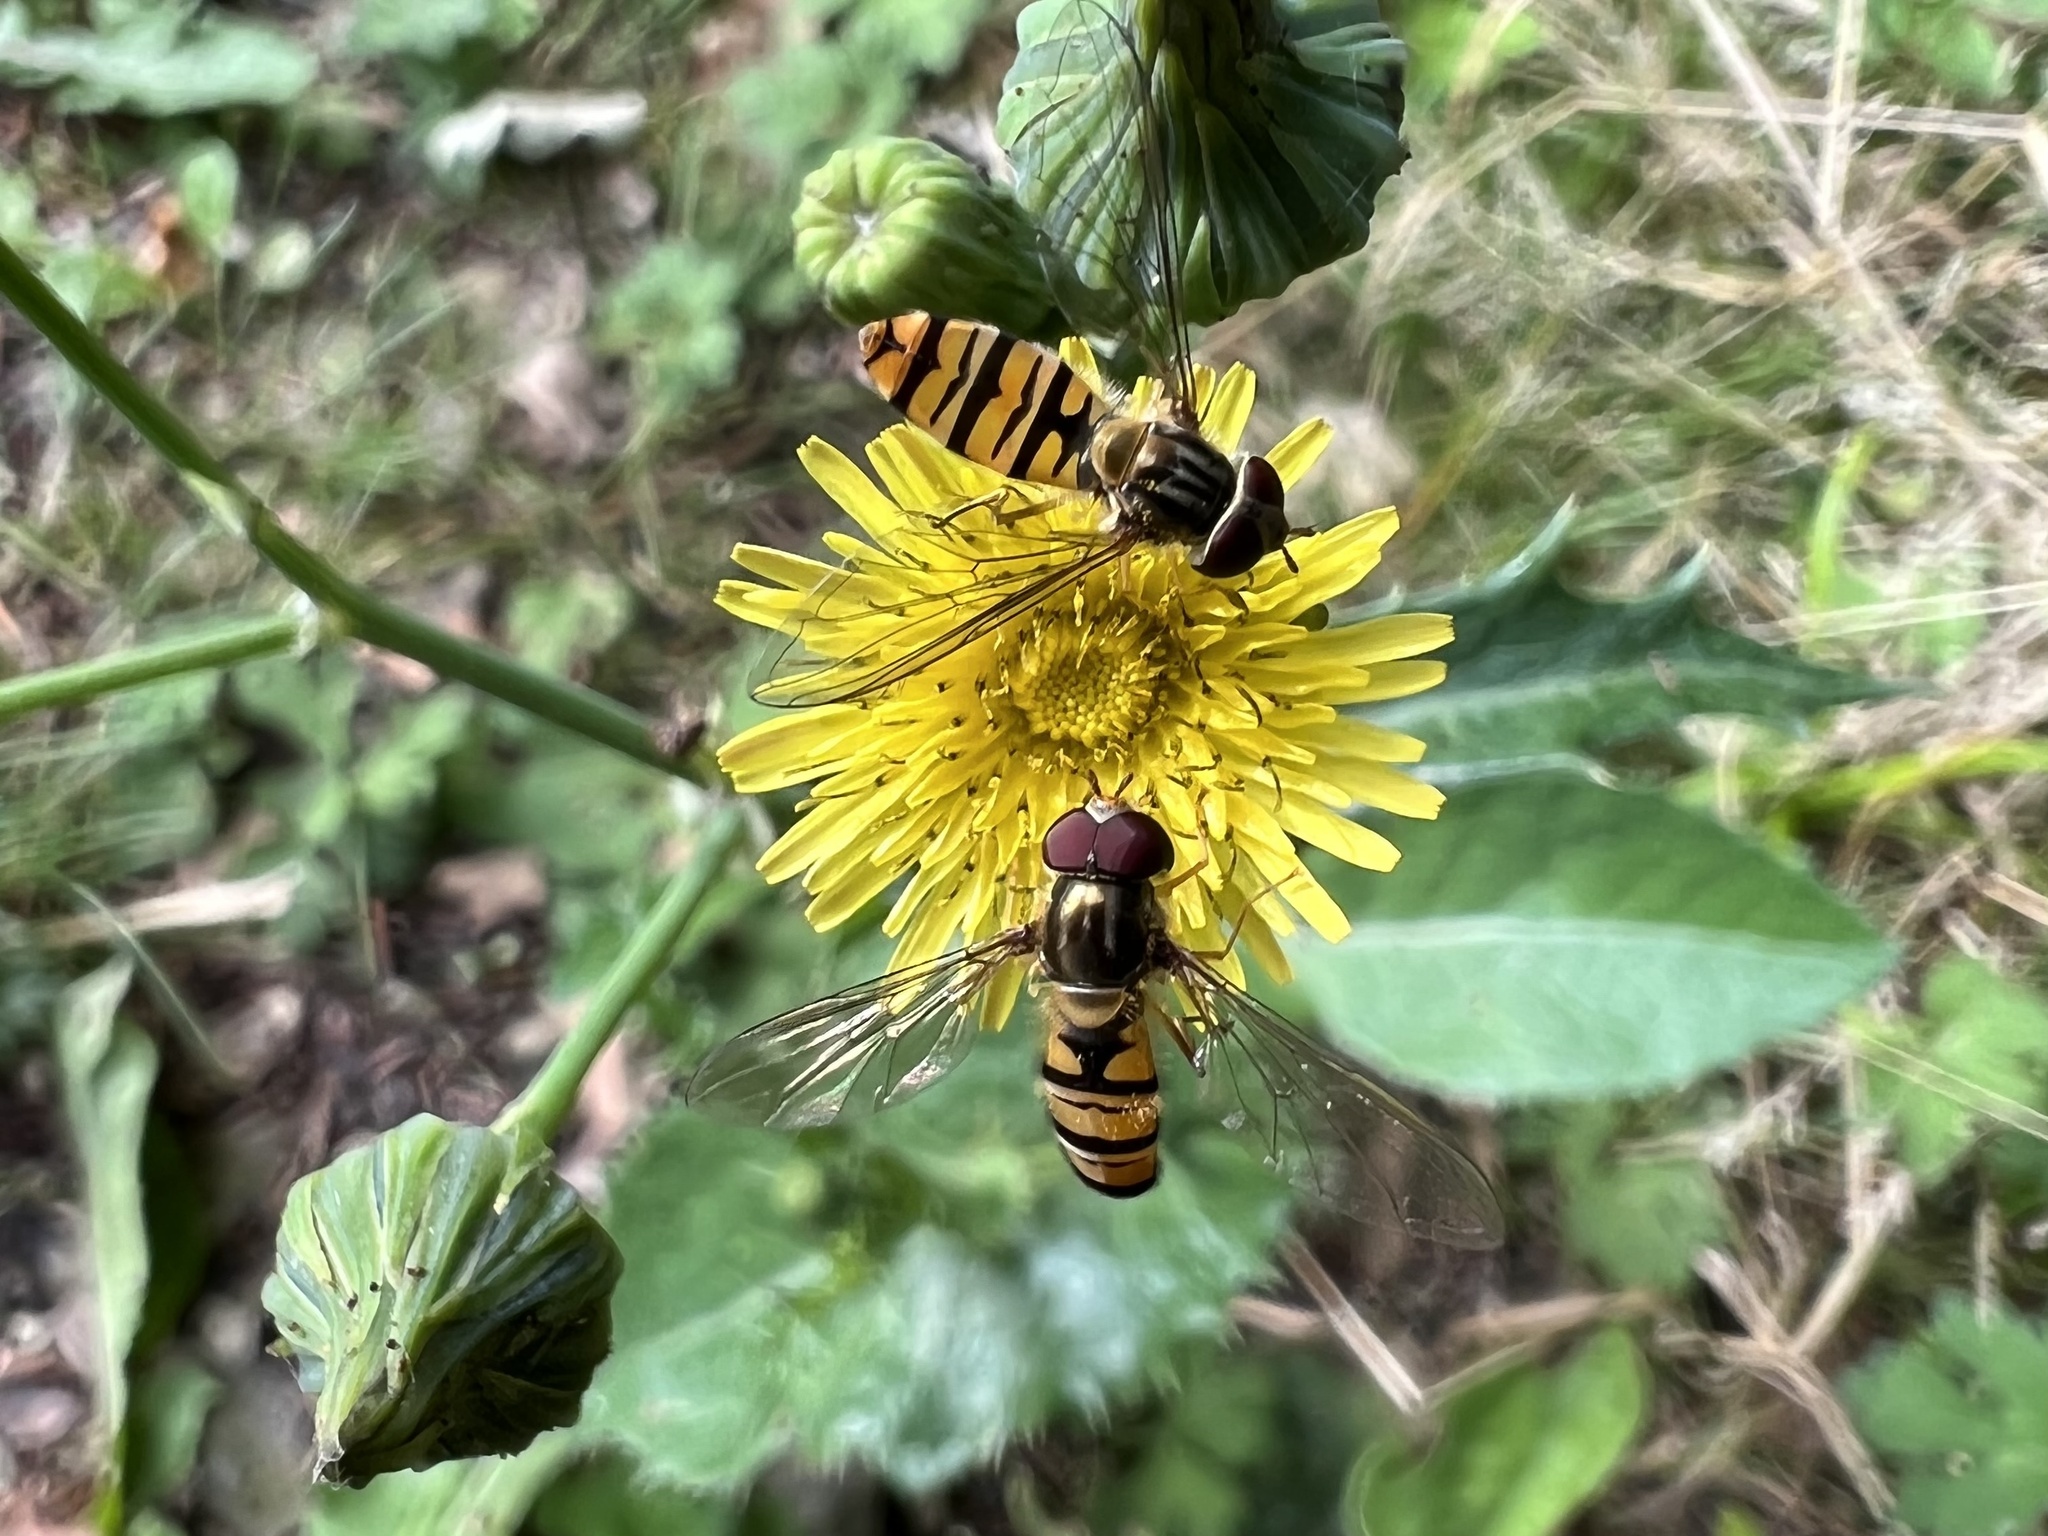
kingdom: Animalia
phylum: Arthropoda
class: Insecta
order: Diptera
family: Syrphidae
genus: Episyrphus
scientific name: Episyrphus balteatus
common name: Marmalade hoverfly
